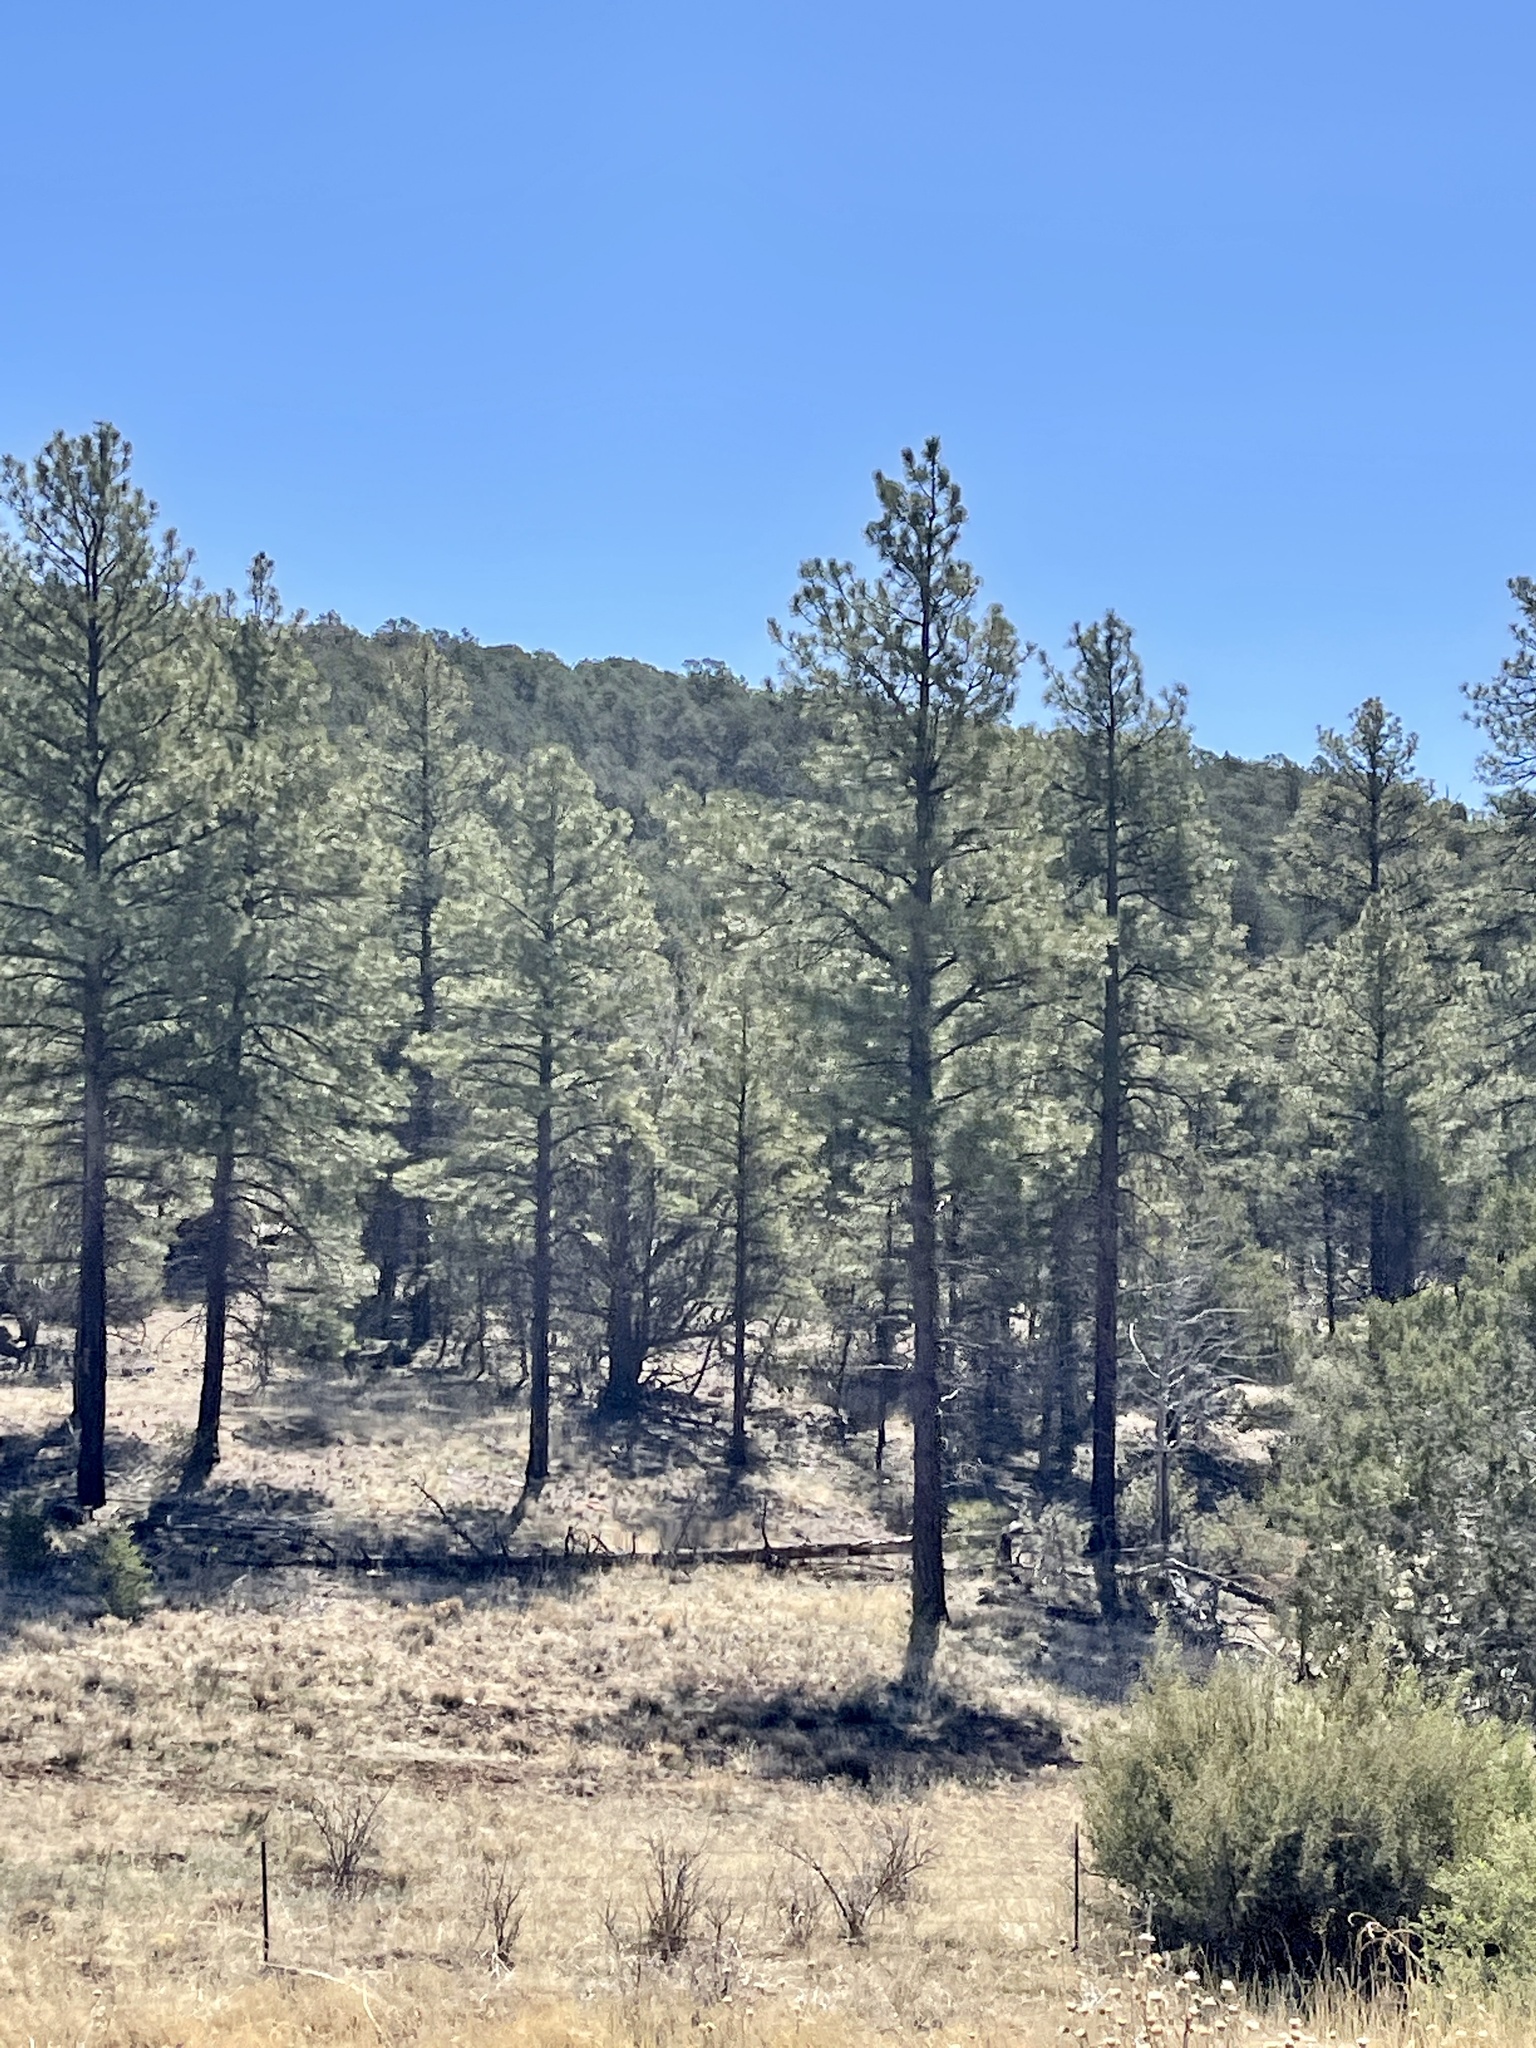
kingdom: Plantae
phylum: Tracheophyta
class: Pinopsida
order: Pinales
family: Pinaceae
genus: Pinus
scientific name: Pinus ponderosa
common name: Western yellow-pine
